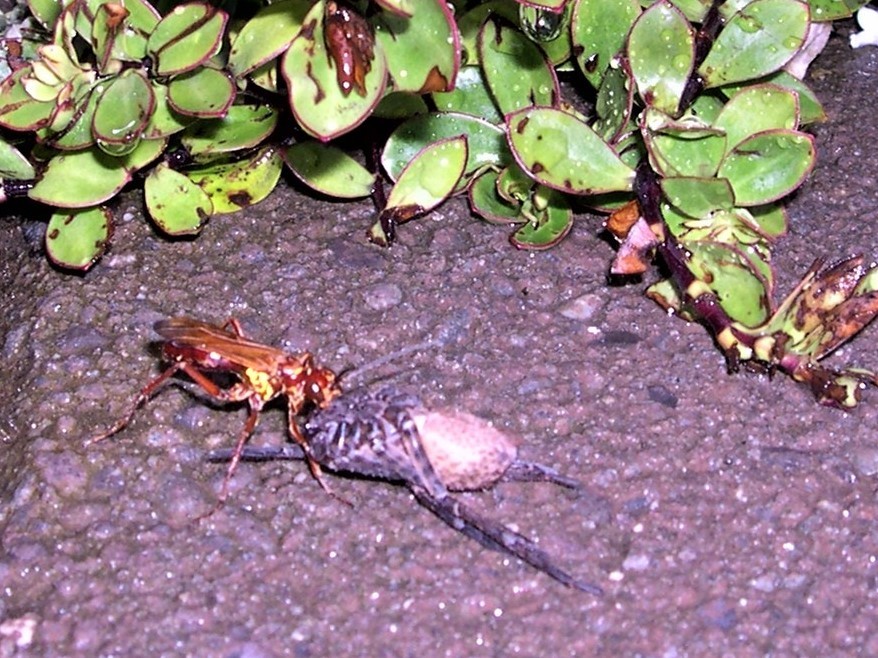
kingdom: Animalia
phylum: Arthropoda
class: Insecta
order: Hymenoptera
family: Pompilidae
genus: Sphictostethus
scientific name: Sphictostethus nitidus
